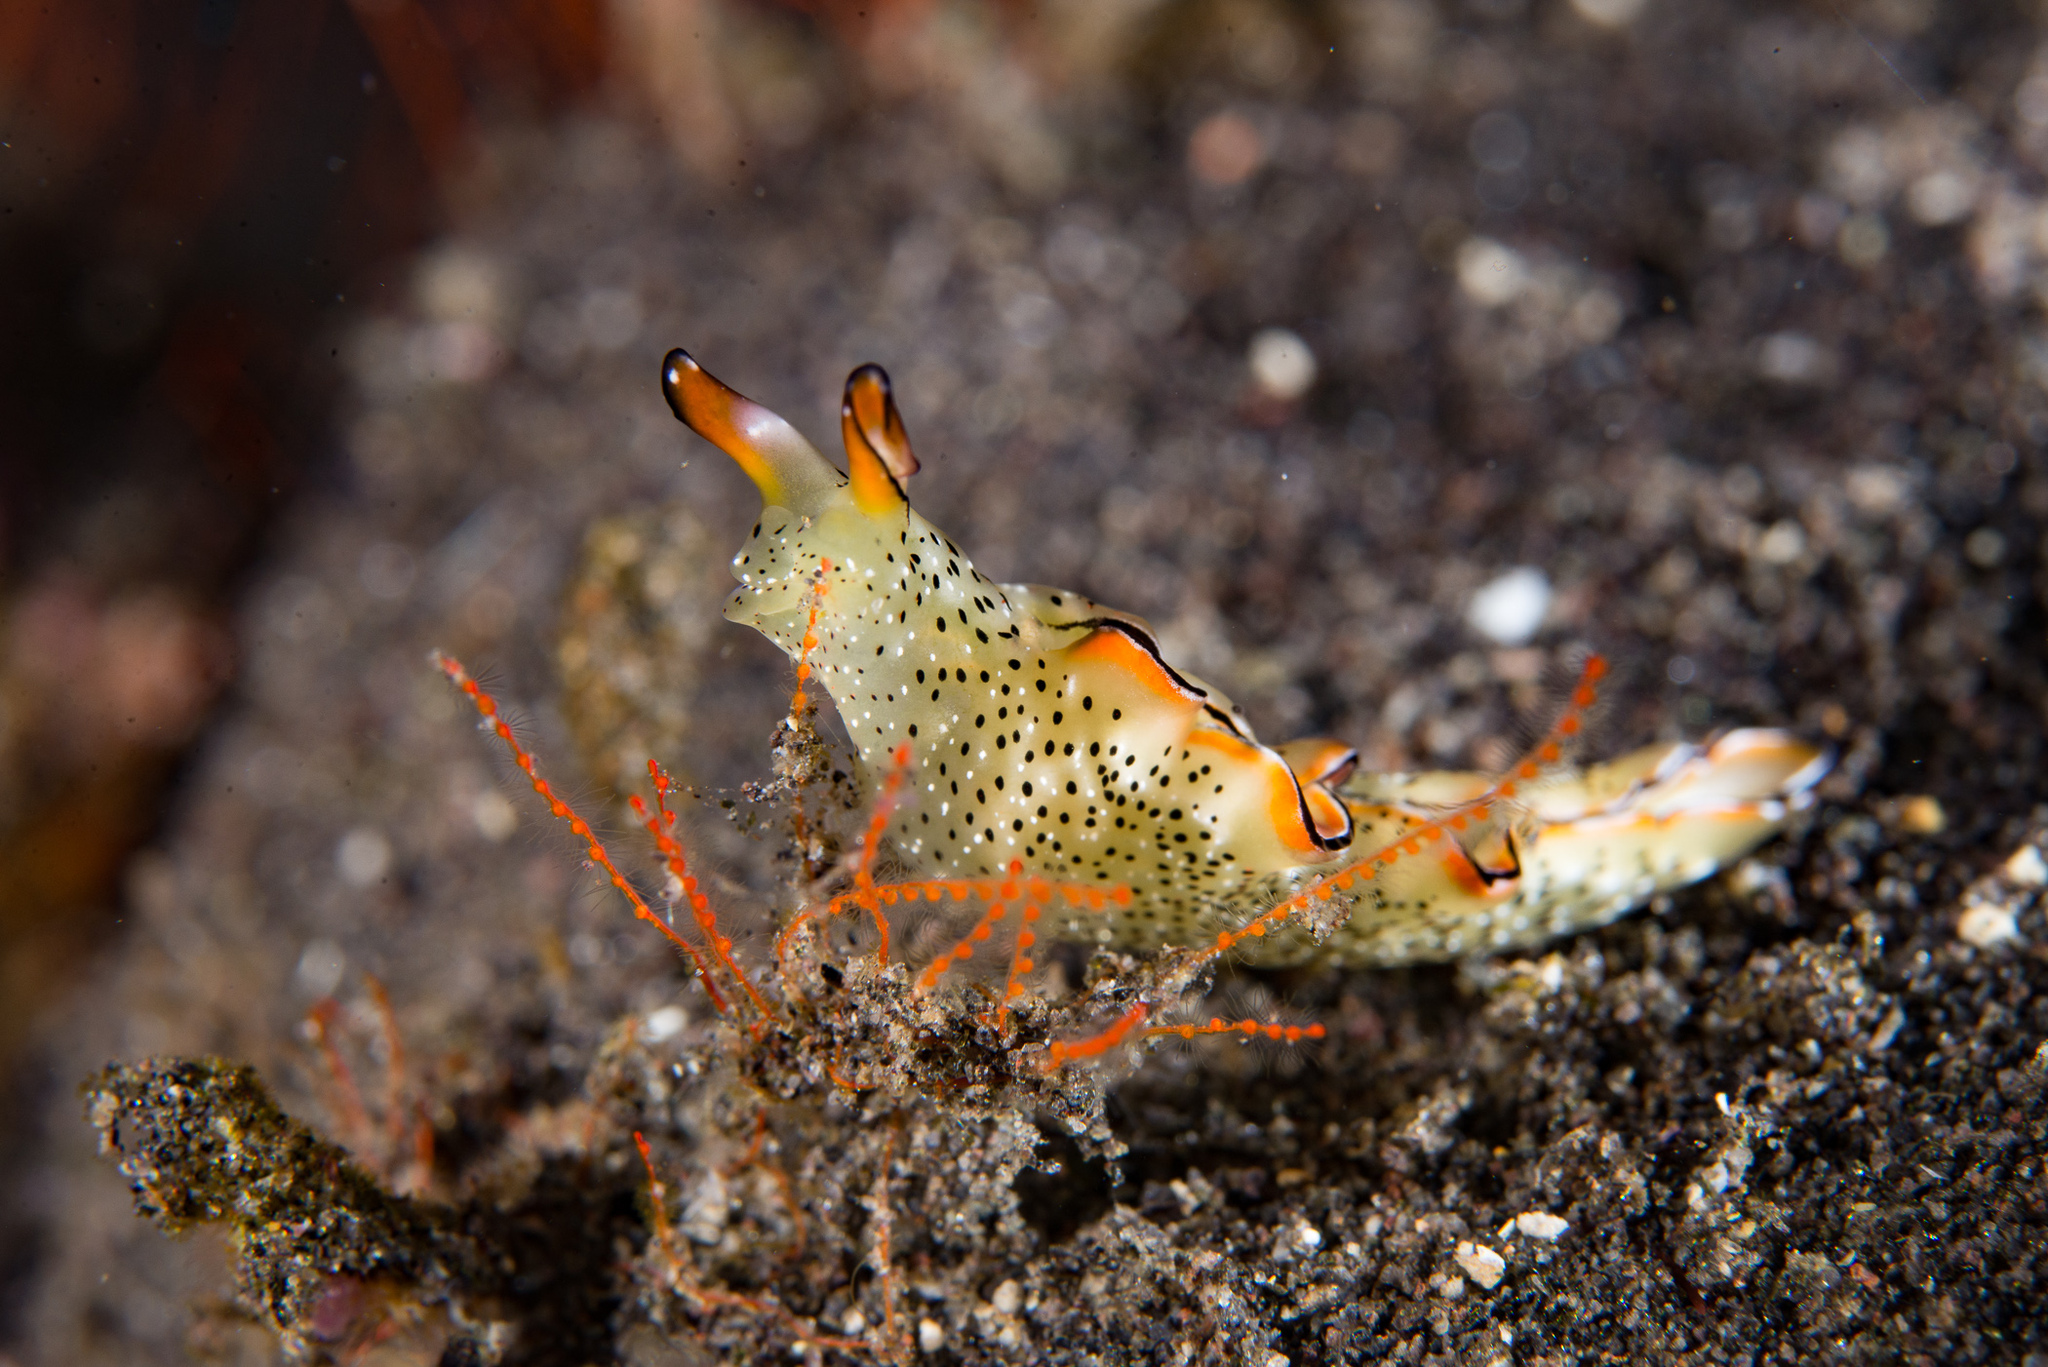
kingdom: Animalia
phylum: Mollusca
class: Gastropoda
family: Plakobranchidae
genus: Elysia
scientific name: Elysia marginata
